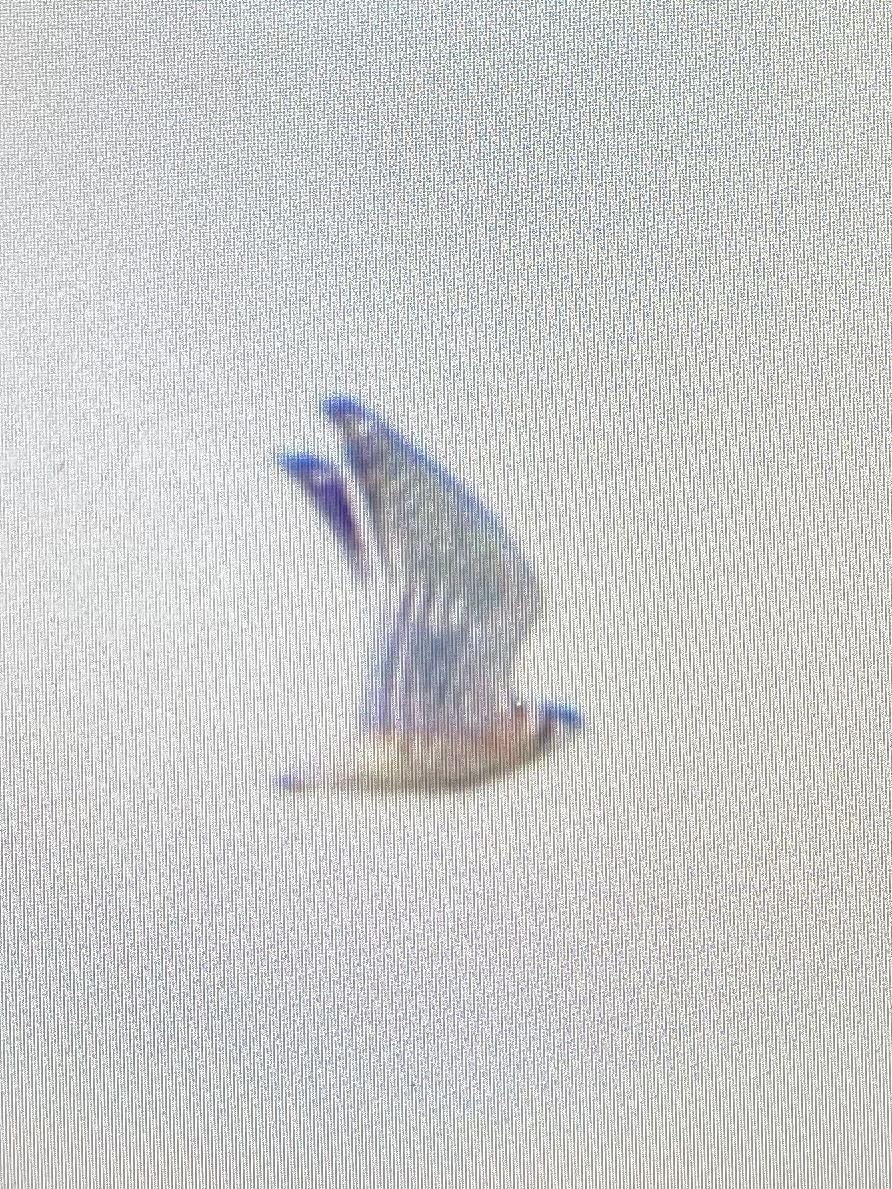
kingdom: Animalia
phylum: Chordata
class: Aves
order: Falconiformes
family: Falconidae
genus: Falco
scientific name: Falco sparverius
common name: American kestrel
